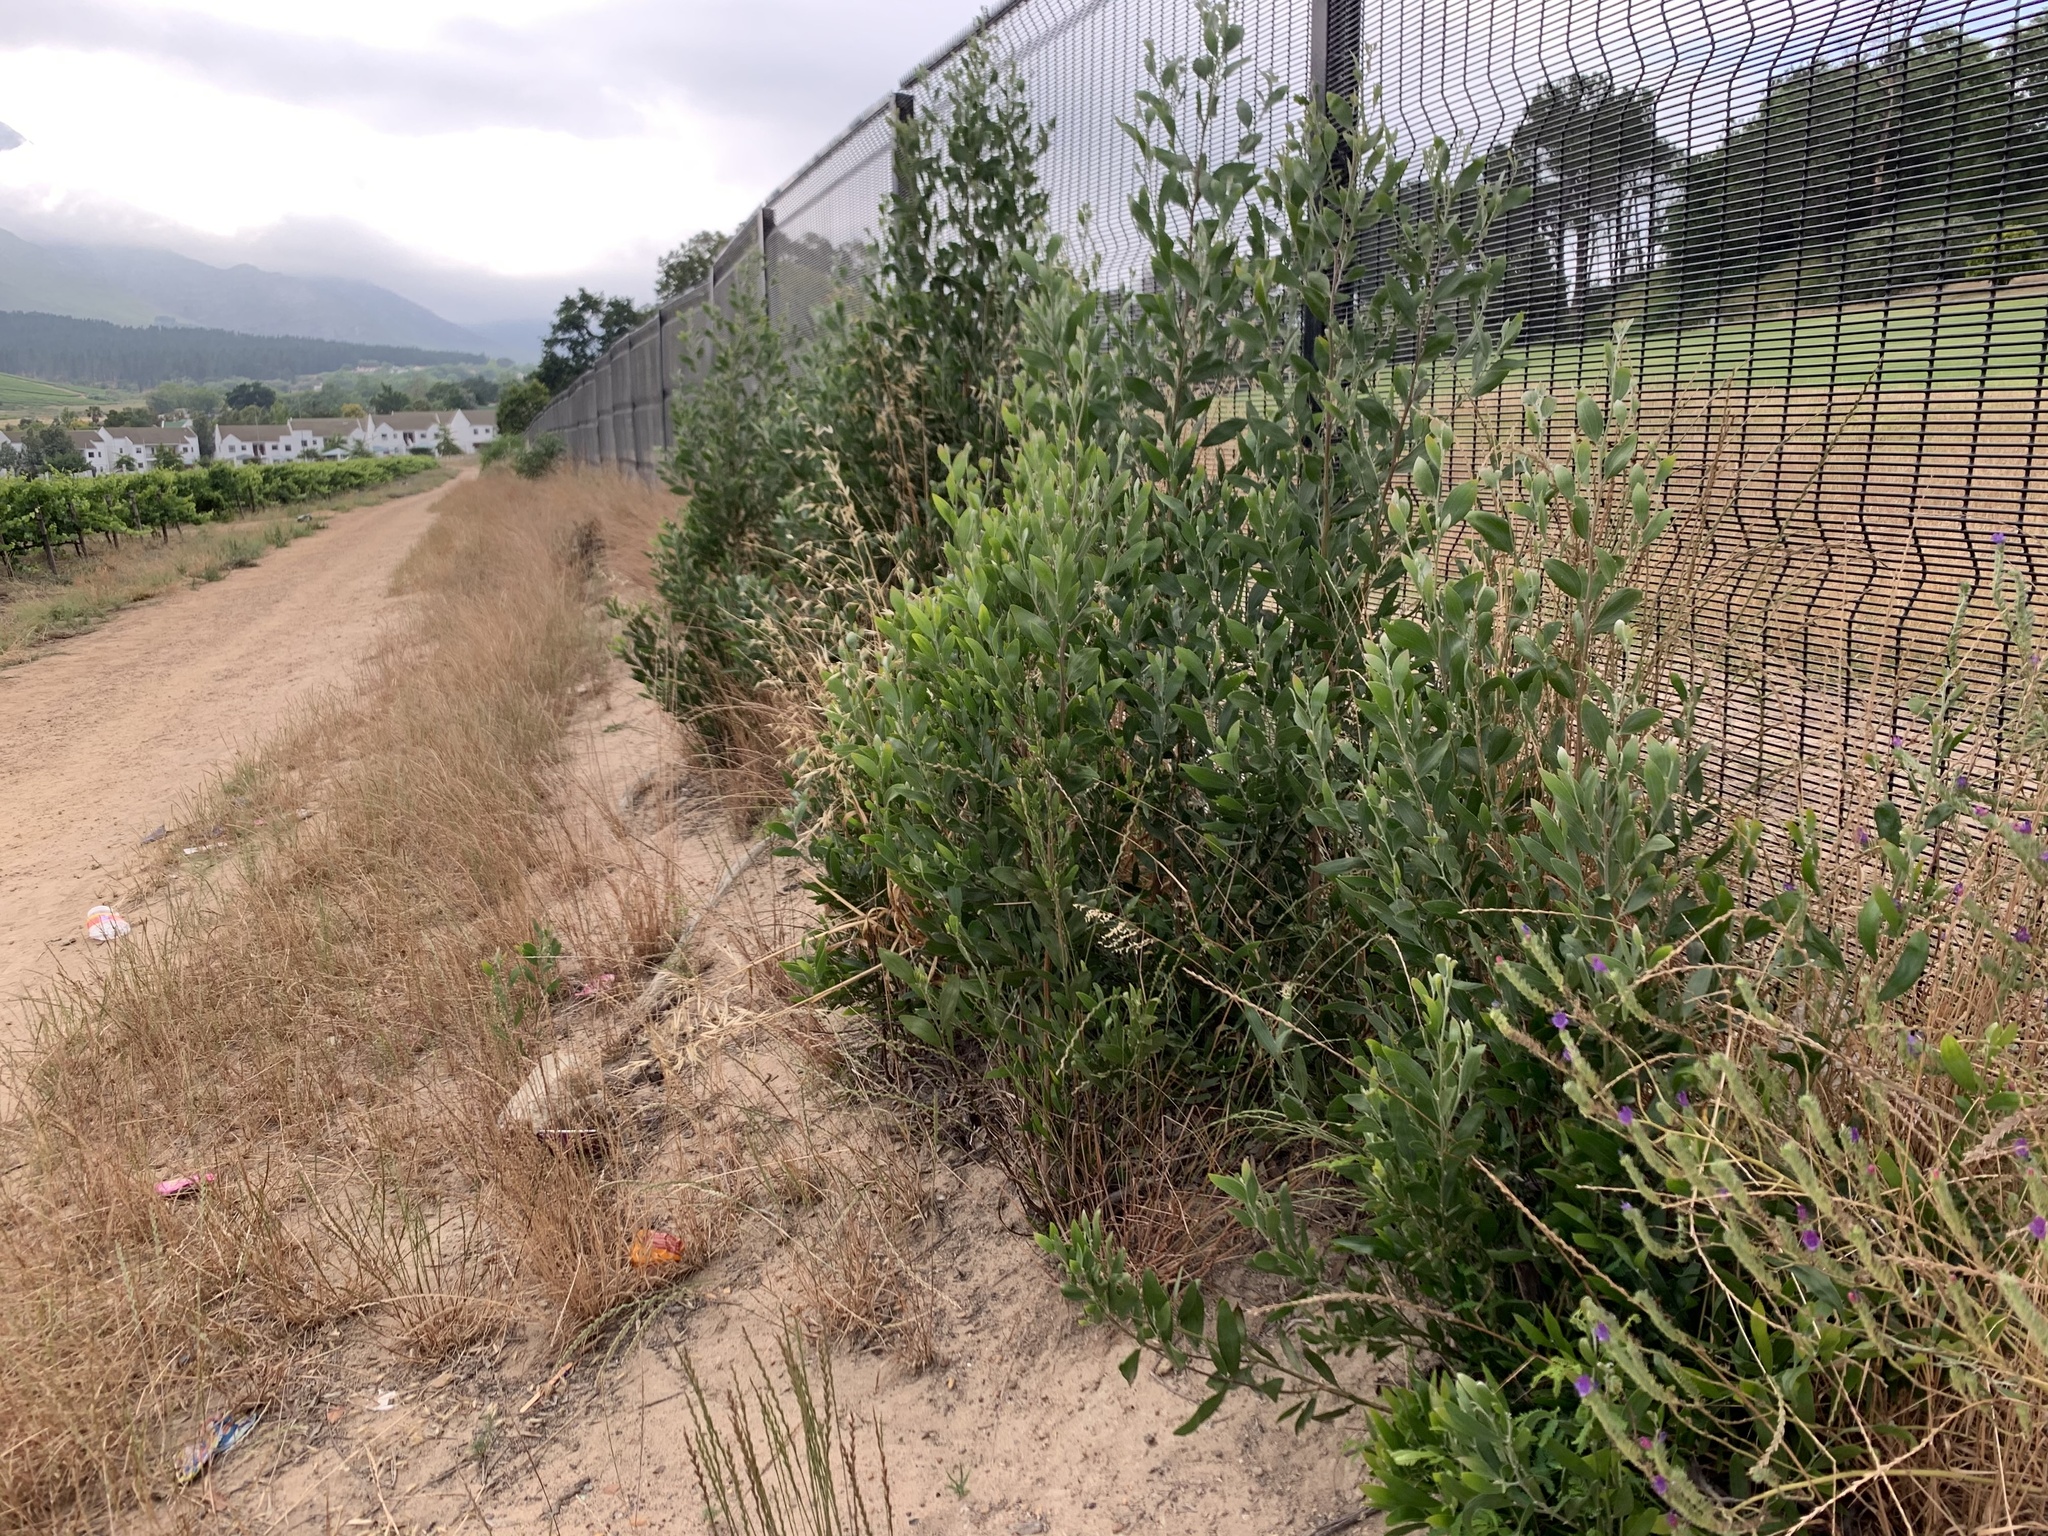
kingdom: Plantae
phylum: Tracheophyta
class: Magnoliopsida
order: Fabales
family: Fabaceae
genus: Acacia
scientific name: Acacia melanoxylon
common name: Blackwood
